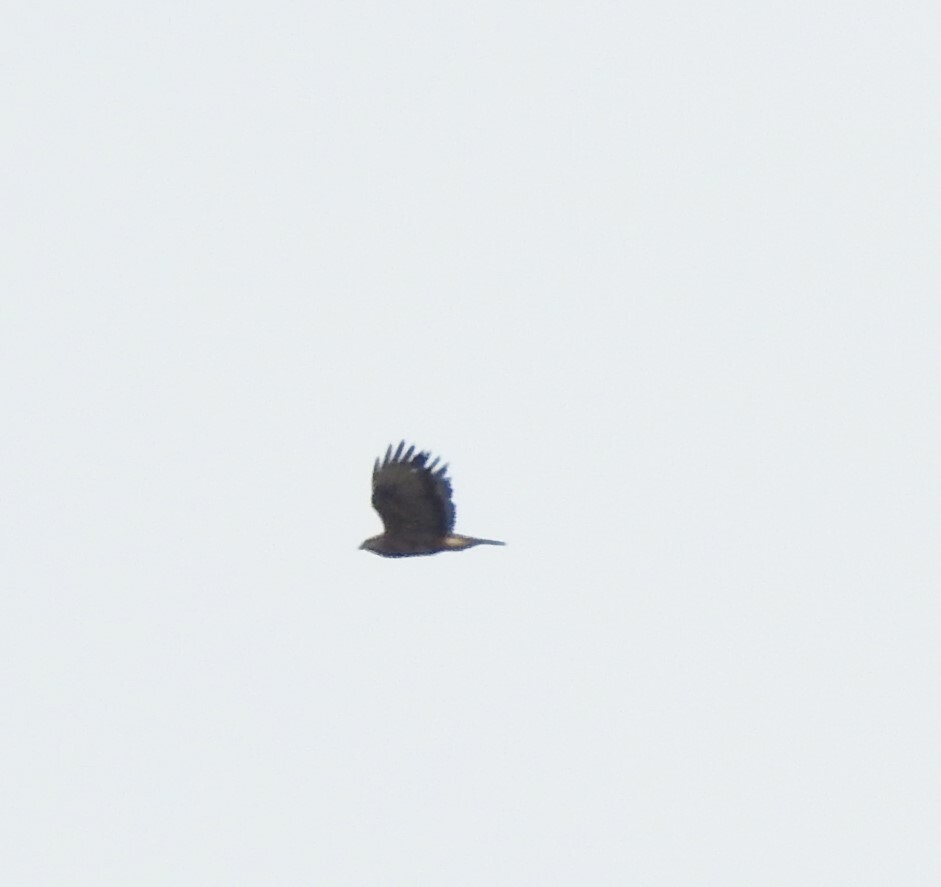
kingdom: Animalia
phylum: Chordata
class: Aves
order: Accipitriformes
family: Accipitridae
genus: Buteo
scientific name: Buteo buteo
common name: Common buzzard
